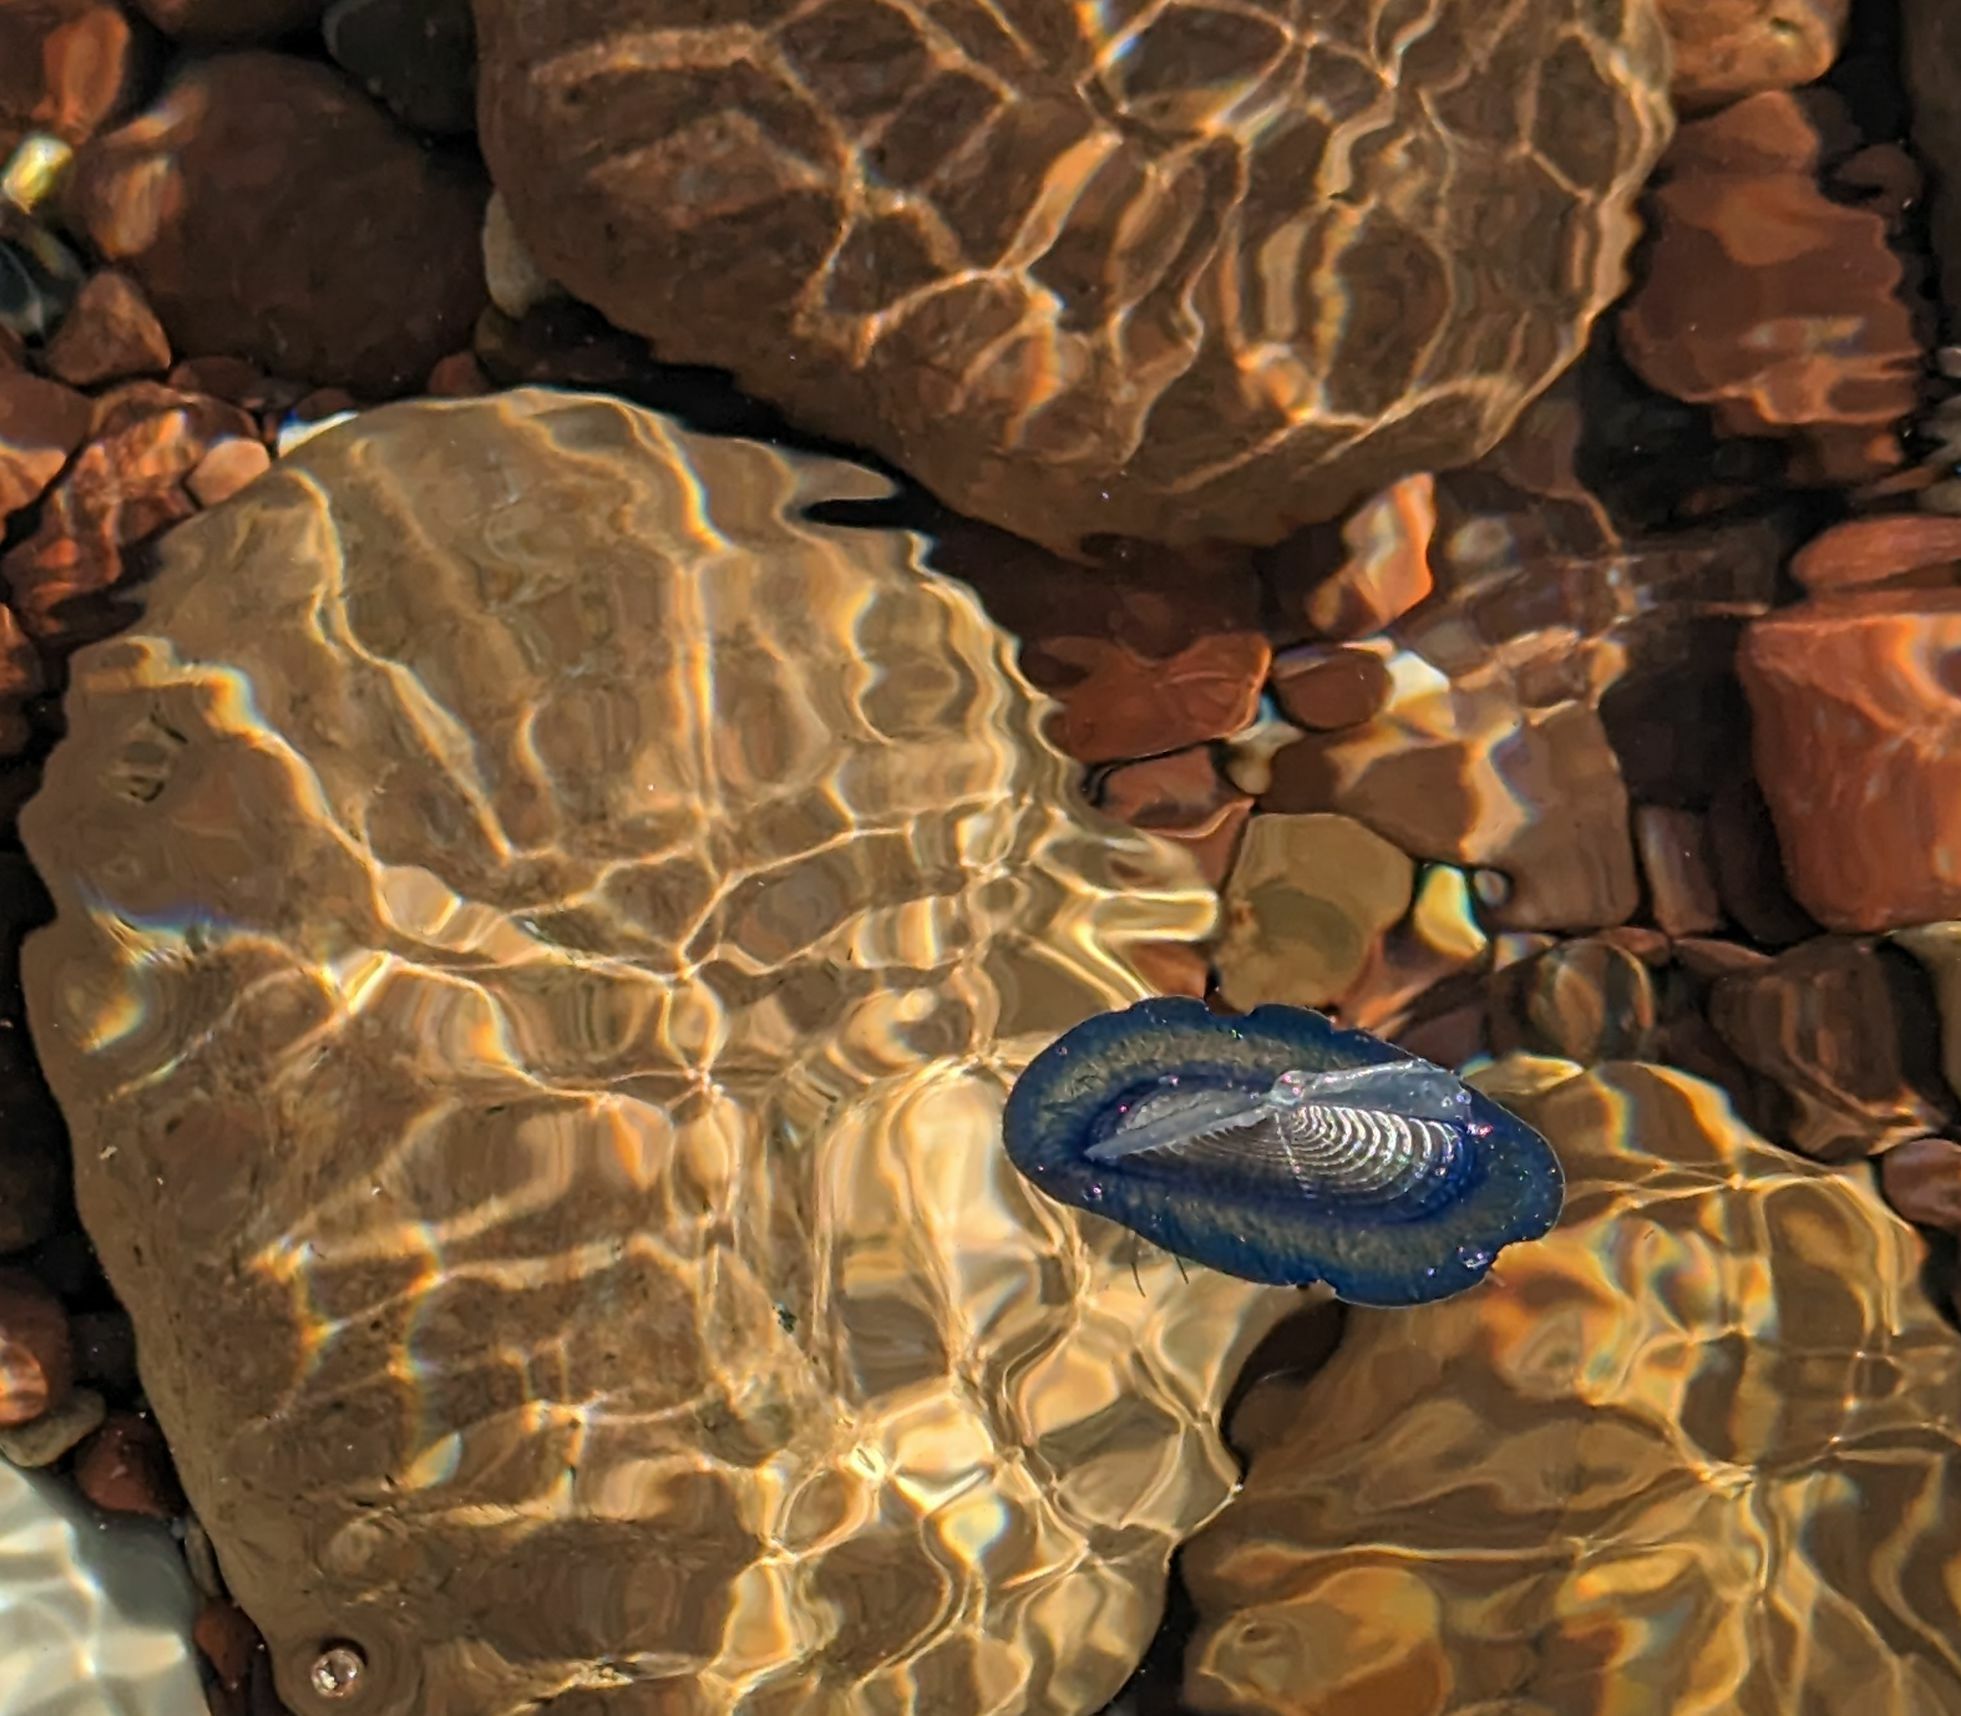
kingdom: Animalia
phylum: Cnidaria
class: Hydrozoa
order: Anthoathecata
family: Porpitidae
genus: Velella
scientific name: Velella velella
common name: By-the-wind-sailor
